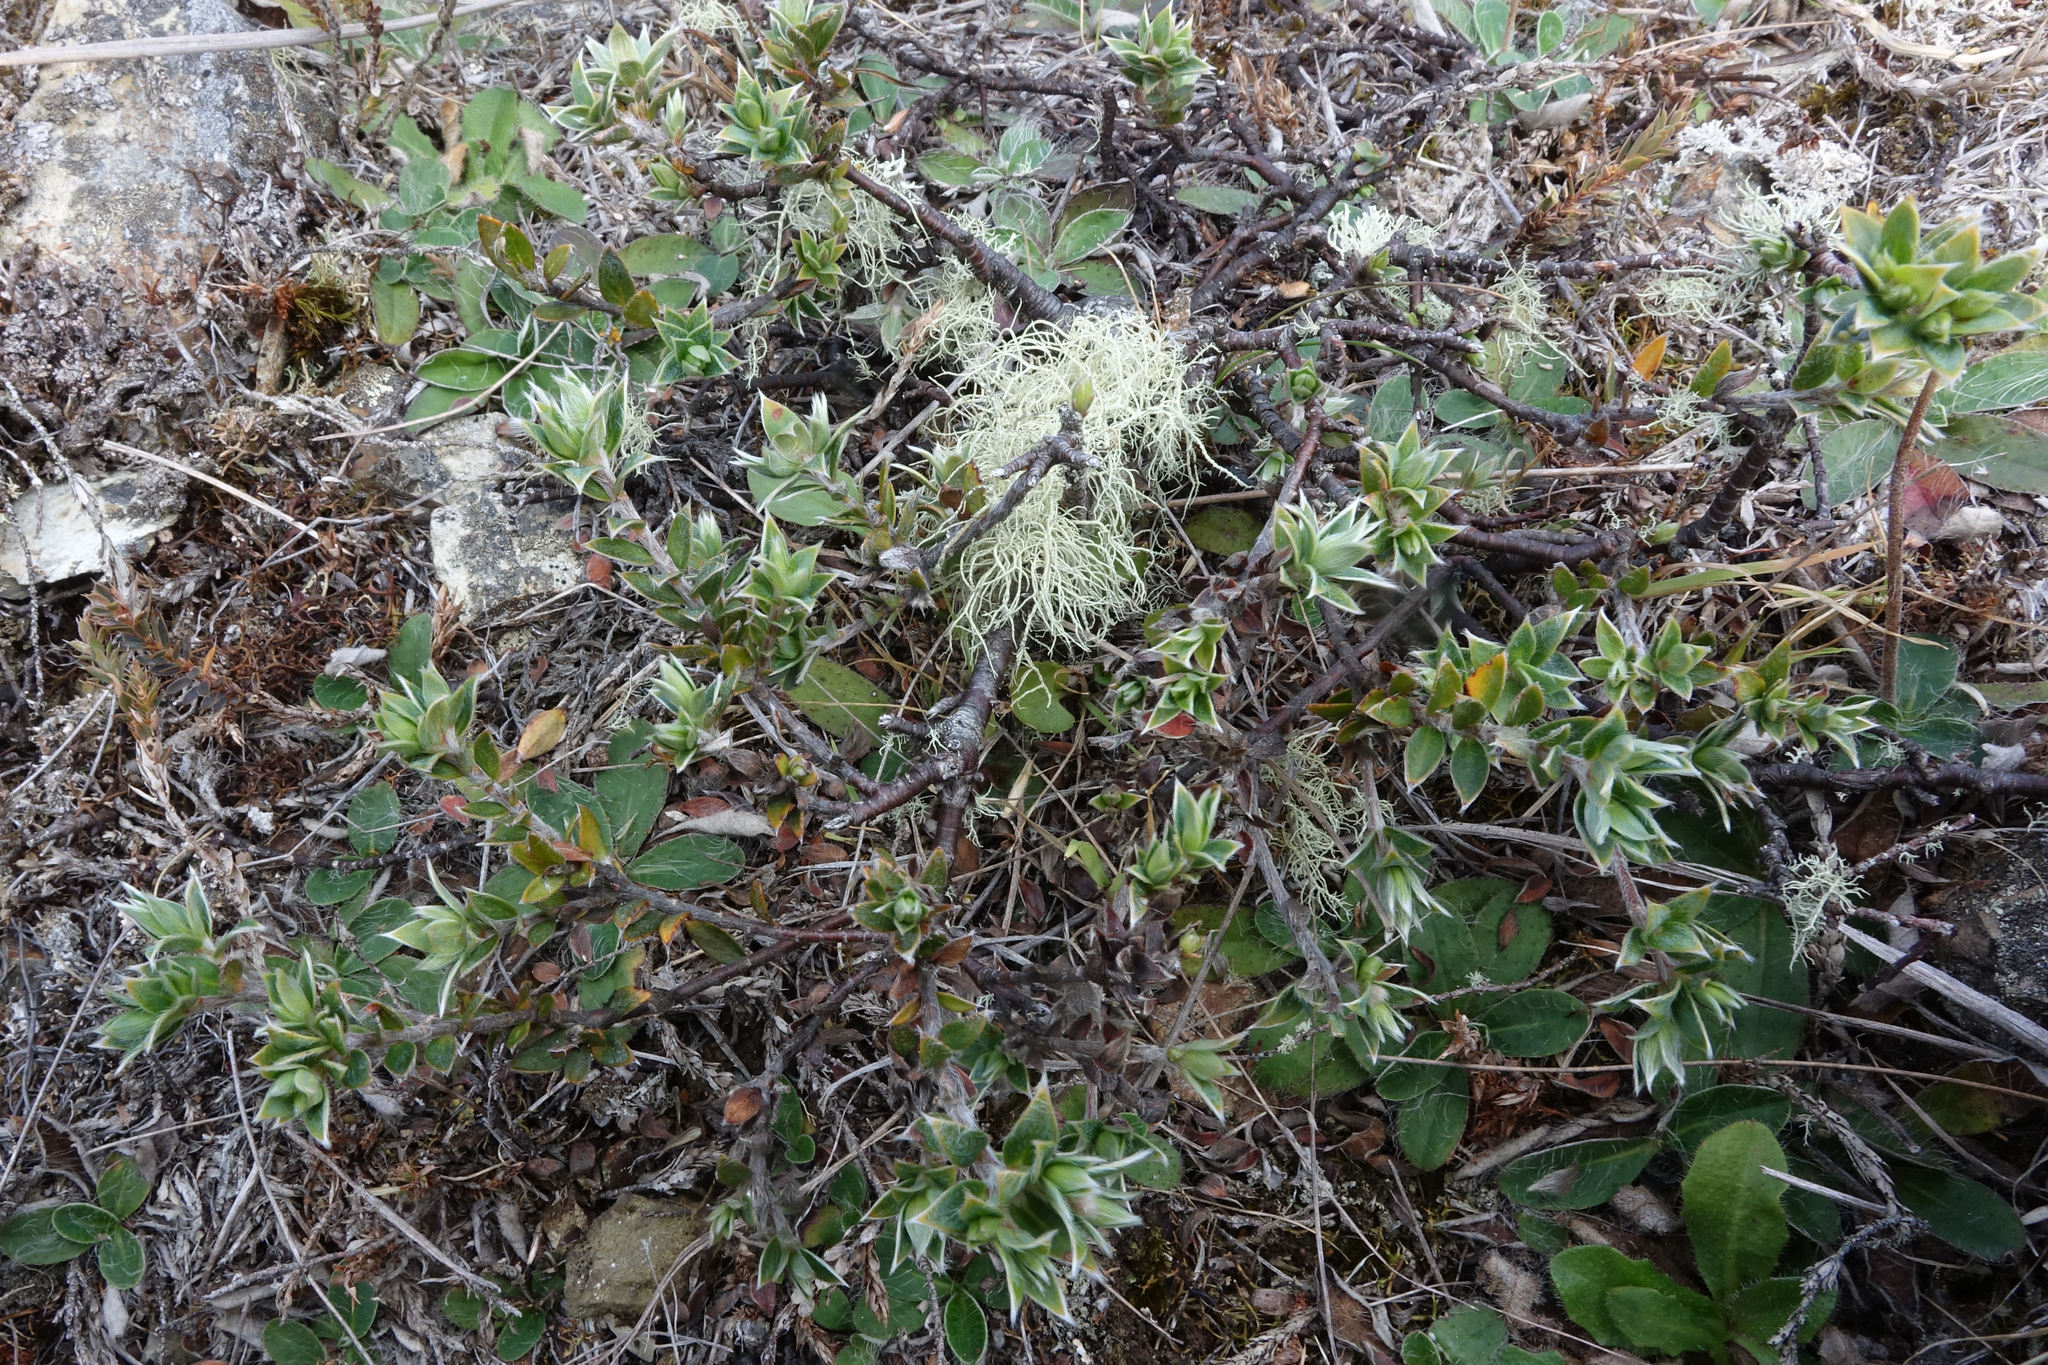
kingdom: Plantae
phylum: Tracheophyta
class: Magnoliopsida
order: Malvales
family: Thymelaeaceae
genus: Pimelea
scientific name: Pimelea pseudolyallii
